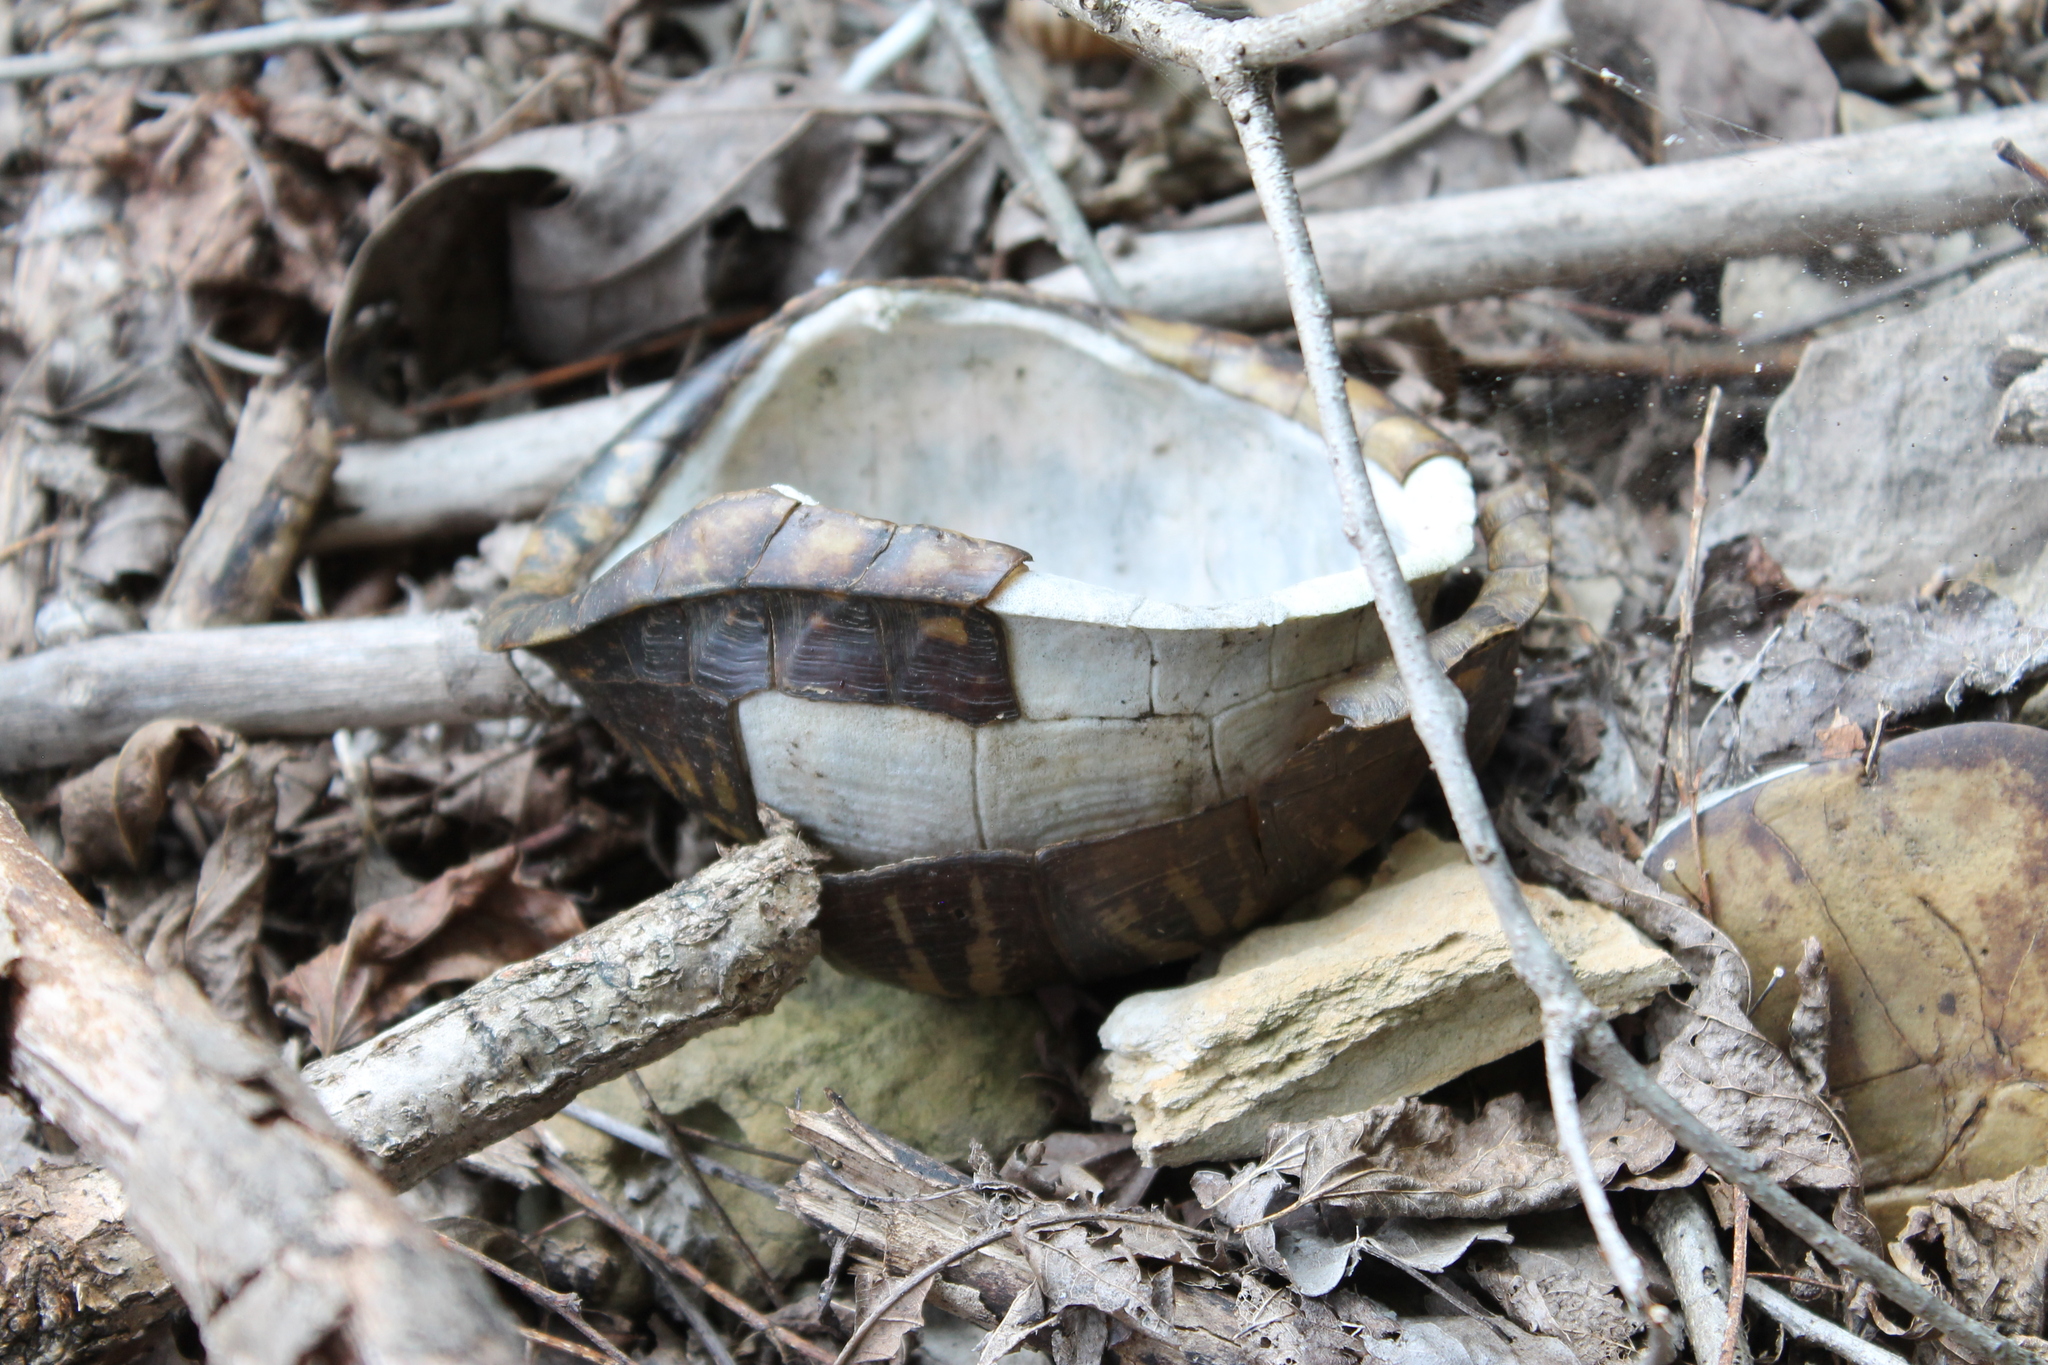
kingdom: Animalia
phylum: Chordata
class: Testudines
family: Emydidae
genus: Terrapene
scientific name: Terrapene carolina
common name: Common box turtle
